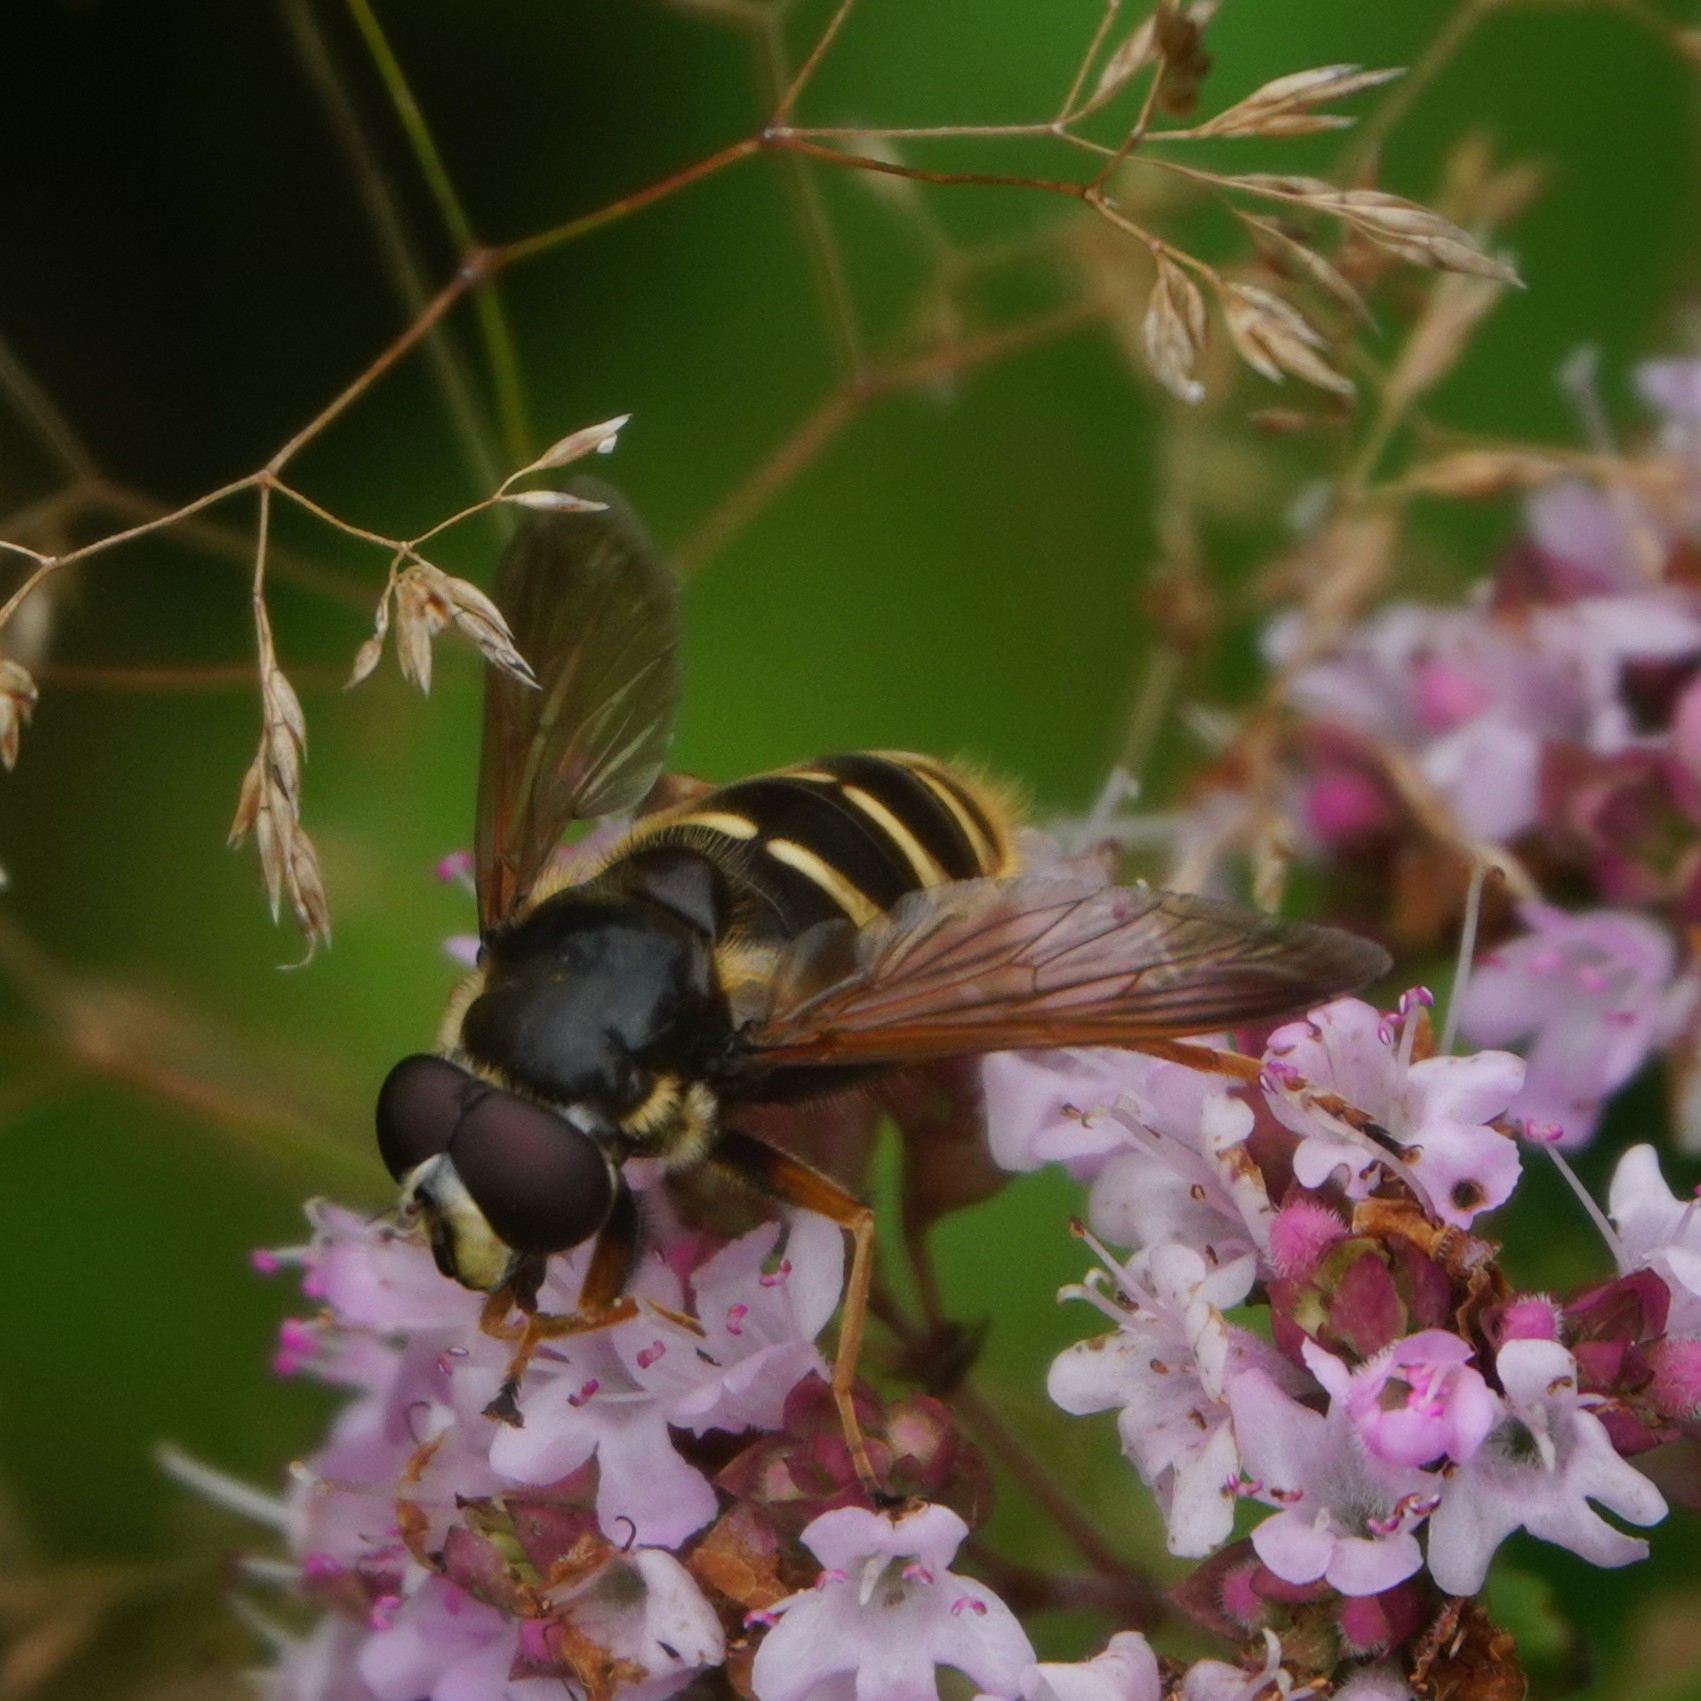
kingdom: Animalia
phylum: Arthropoda
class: Insecta
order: Diptera
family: Syrphidae
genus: Sericomyia
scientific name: Sericomyia silentis
